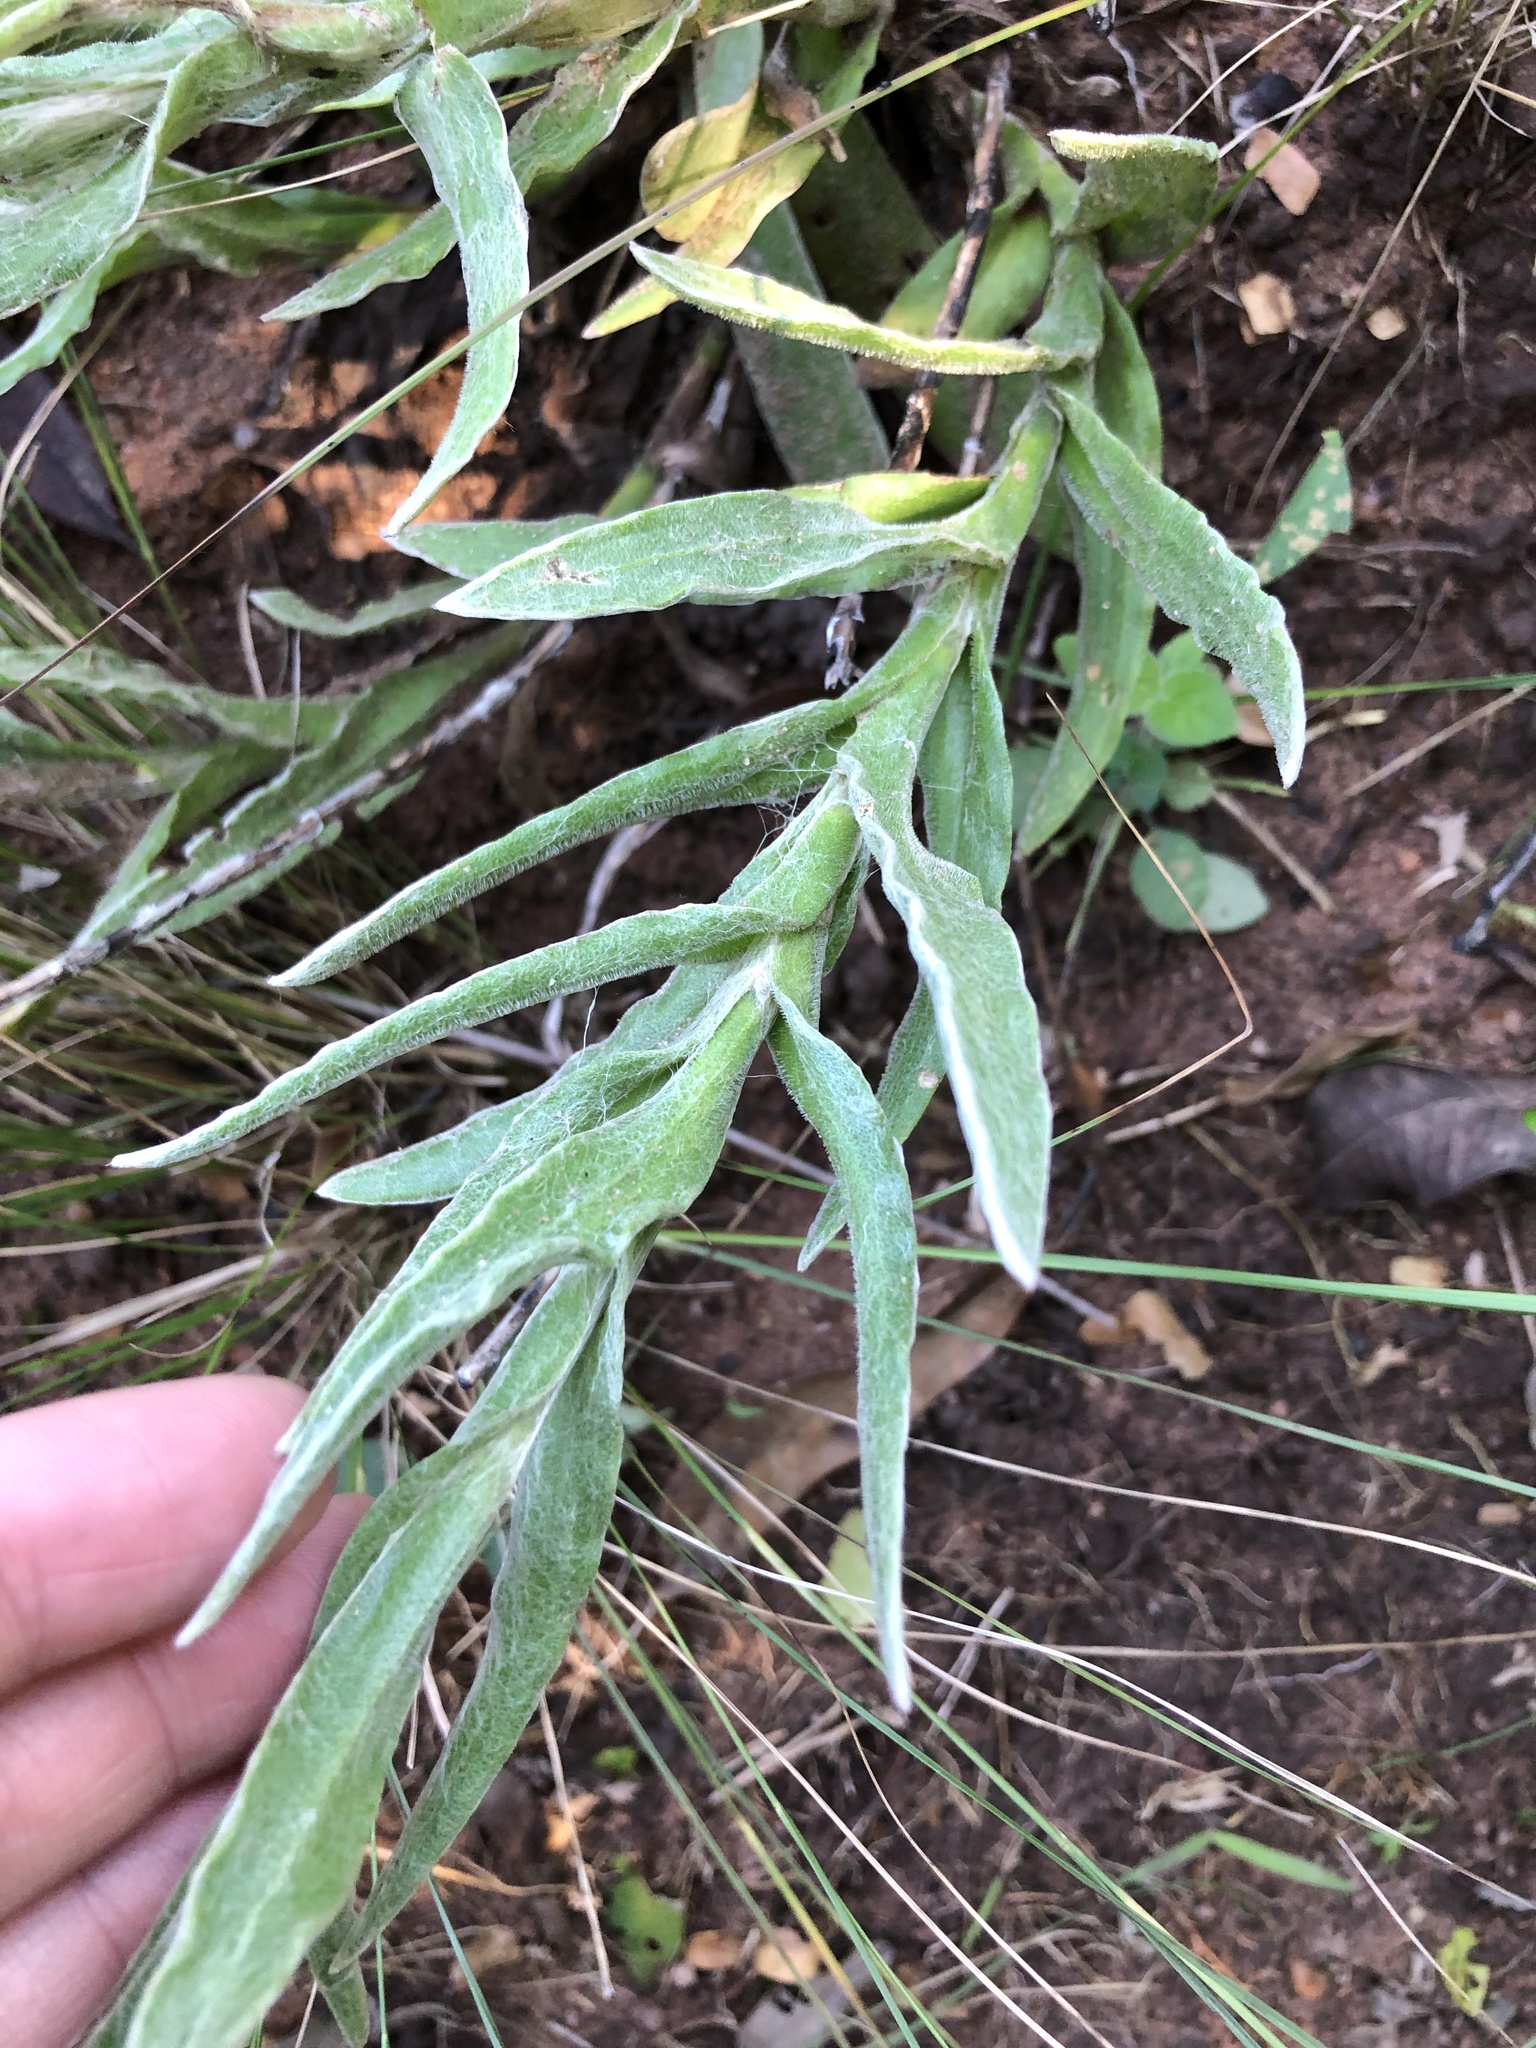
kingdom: Plantae
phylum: Tracheophyta
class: Magnoliopsida
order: Asterales
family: Asteraceae
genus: Helichrysum
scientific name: Helichrysum auriceps
